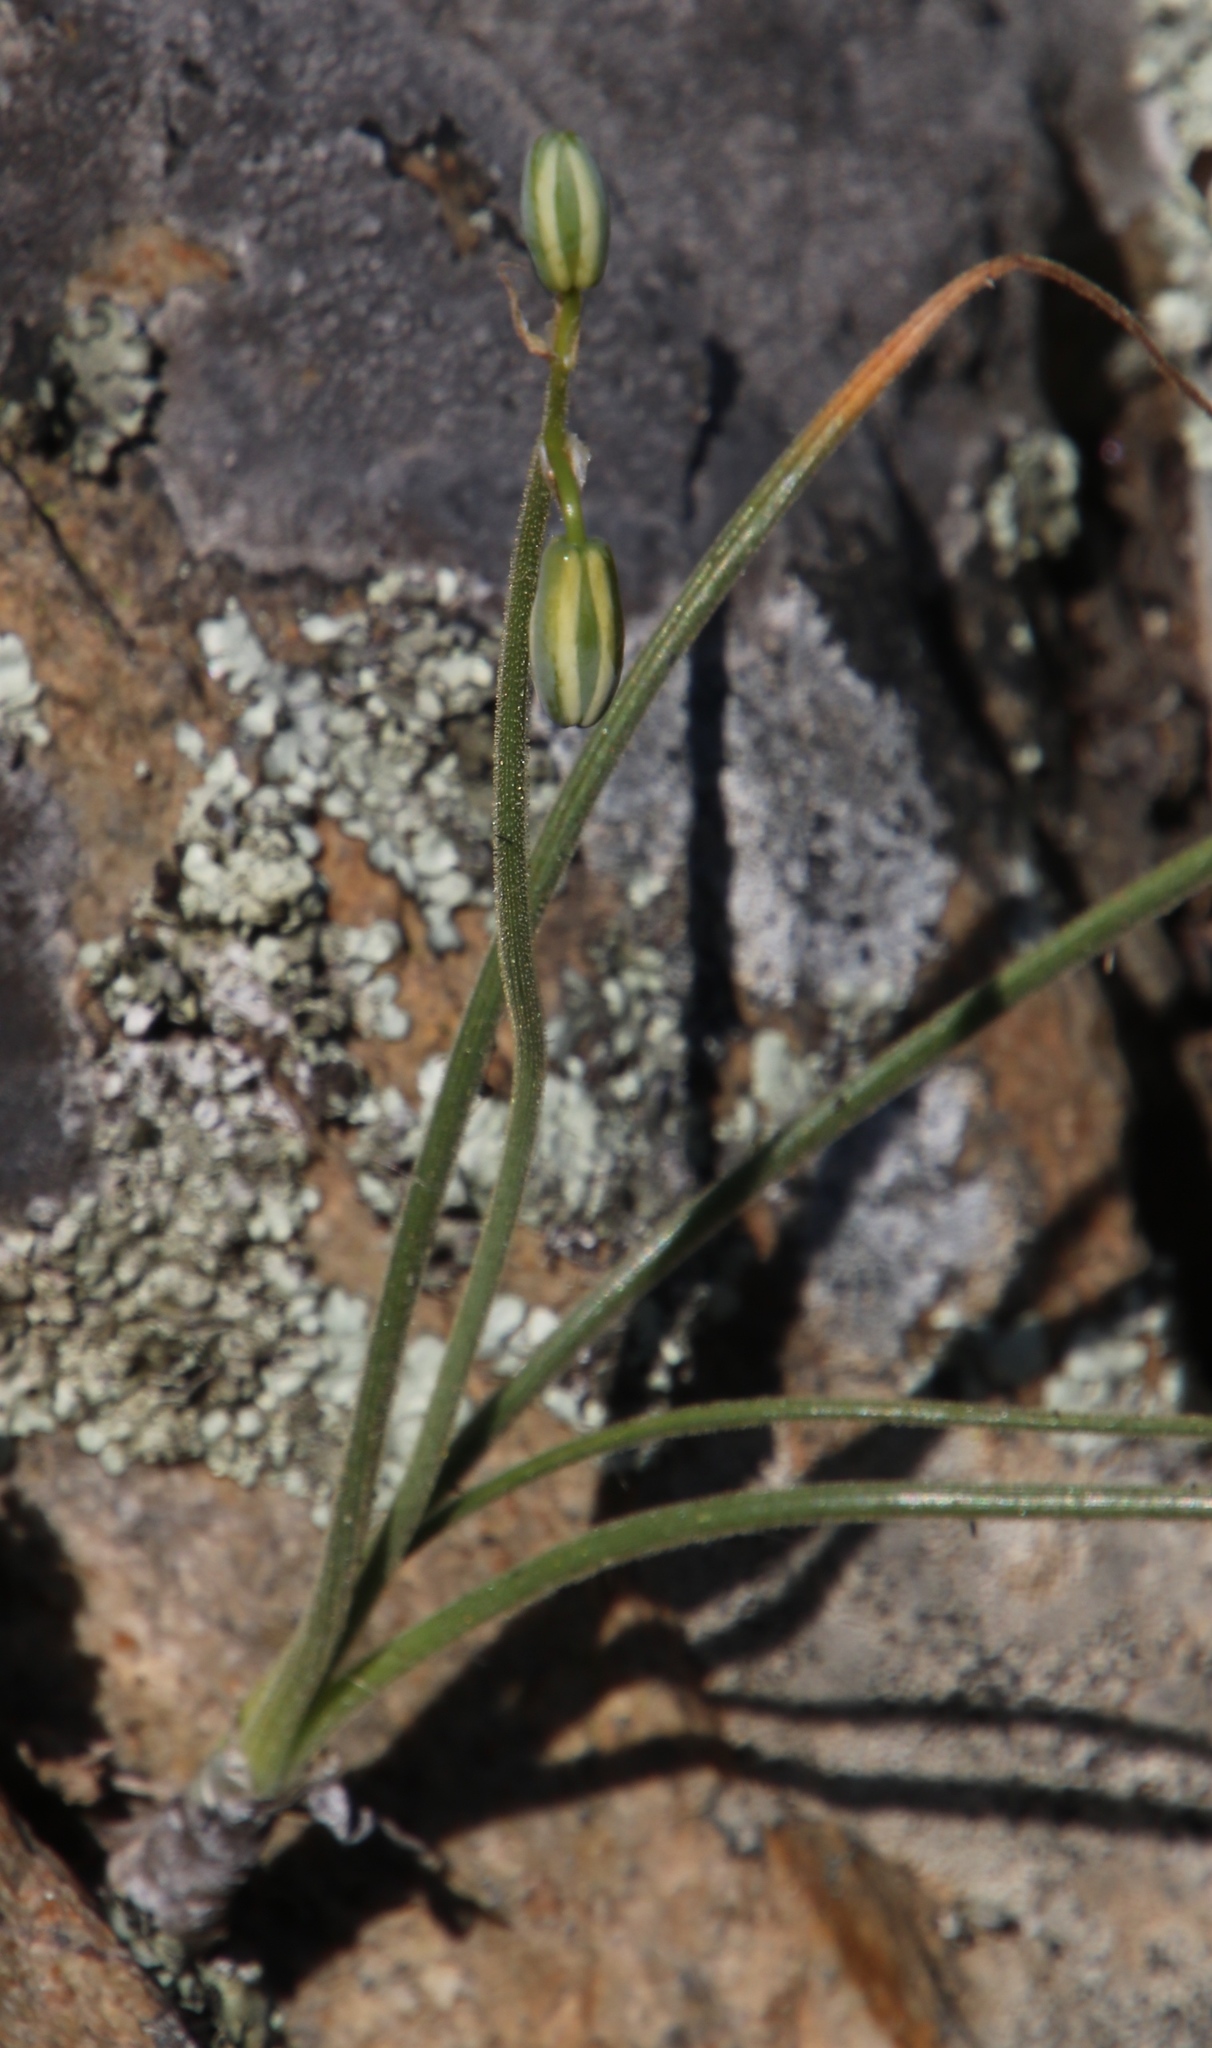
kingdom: Plantae
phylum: Tracheophyta
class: Liliopsida
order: Asparagales
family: Asparagaceae
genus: Albuca
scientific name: Albuca viscosa
